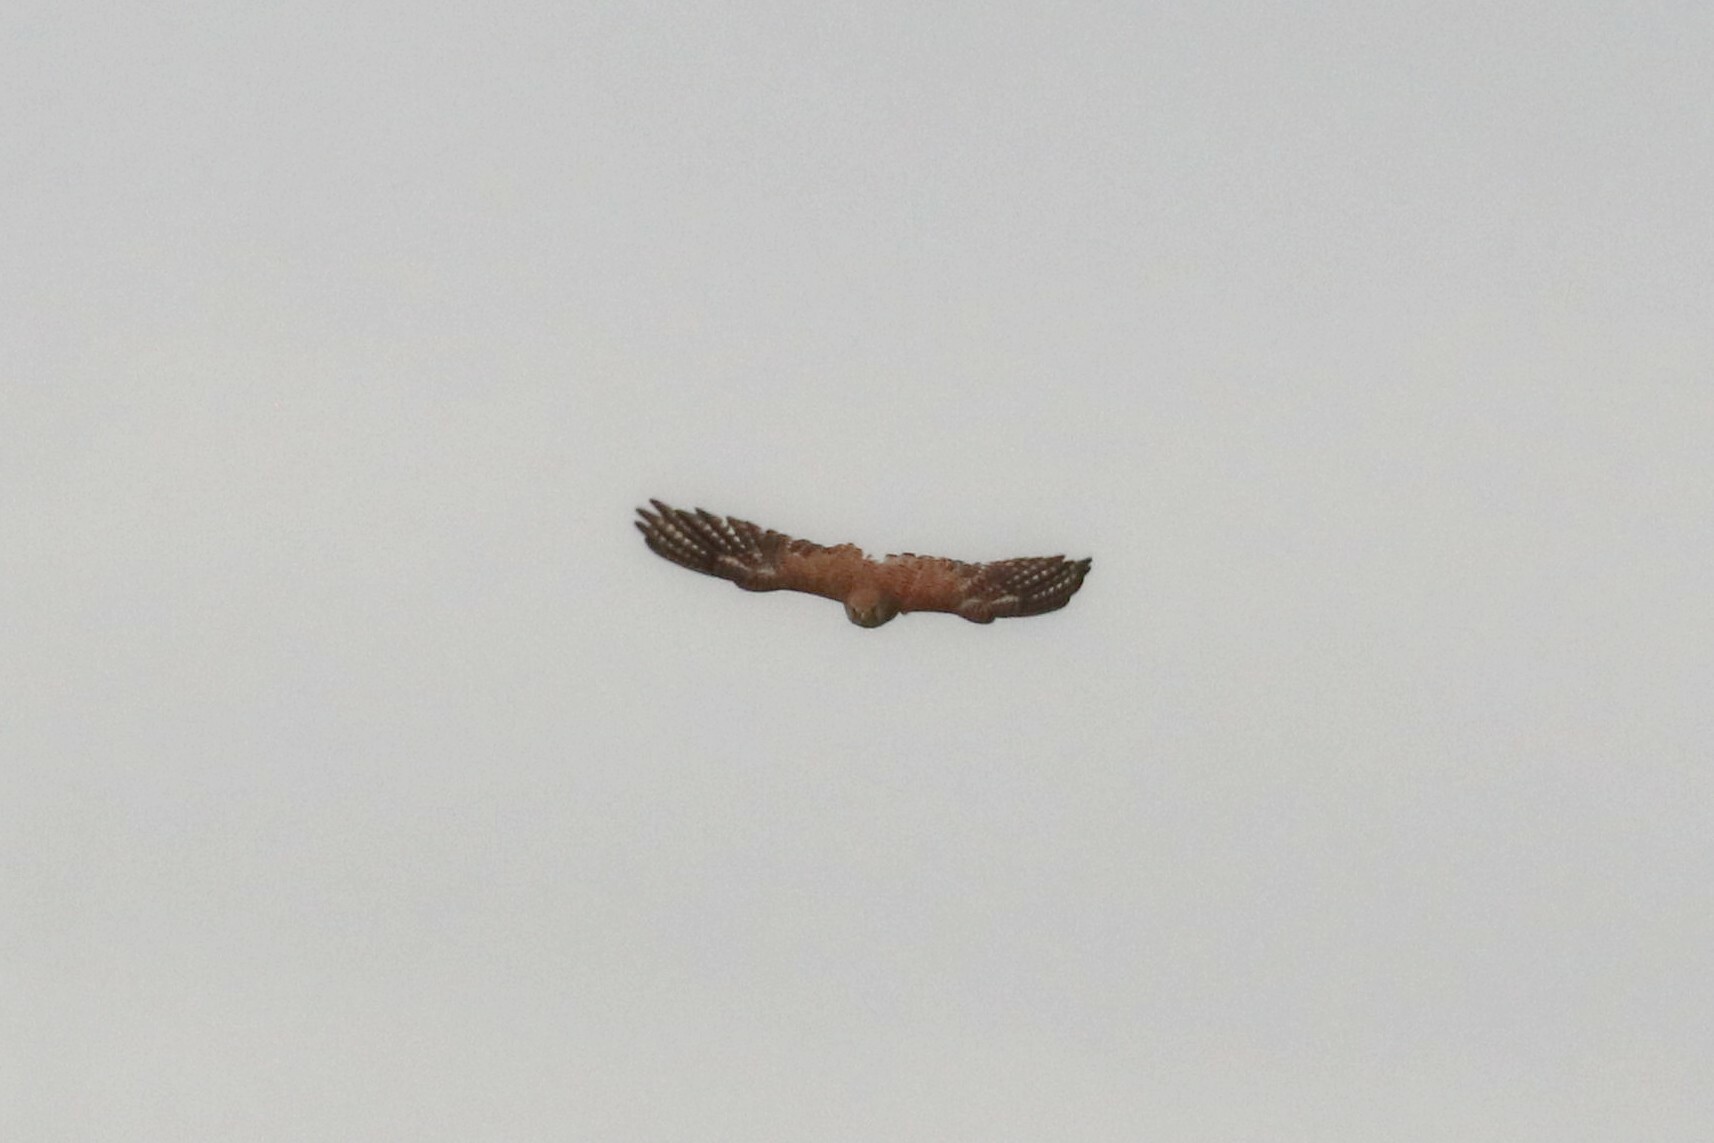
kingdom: Animalia
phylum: Chordata
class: Aves
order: Falconiformes
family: Falconidae
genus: Falco
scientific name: Falco tinnunculus
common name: Common kestrel
